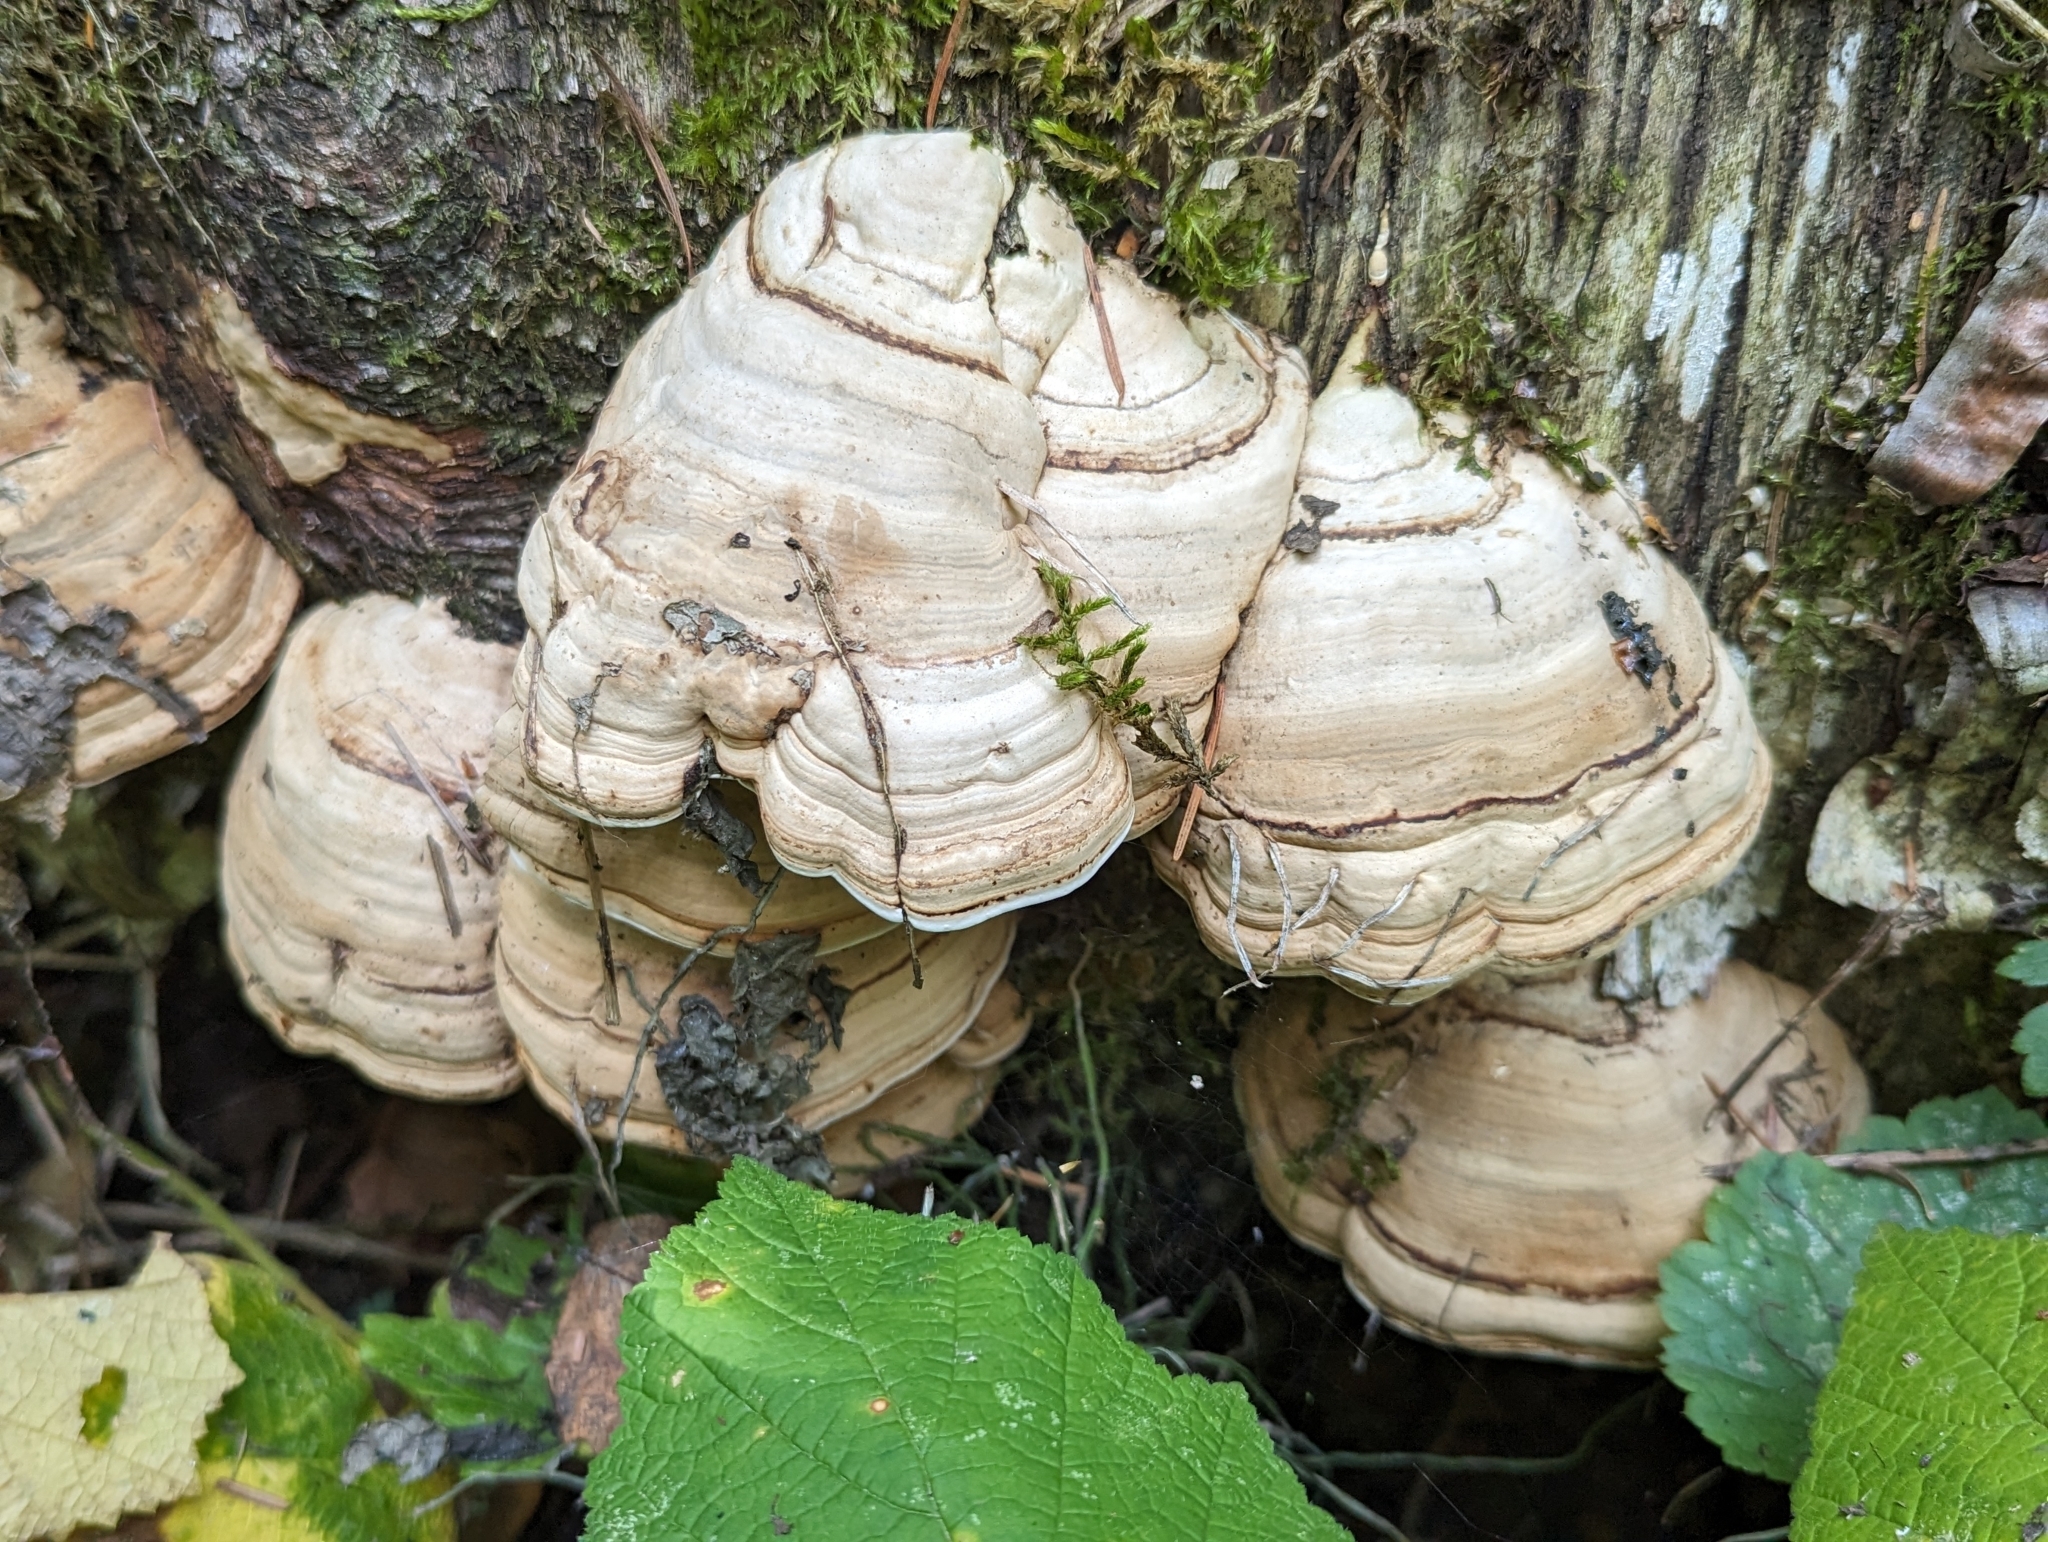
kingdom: Fungi
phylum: Basidiomycota
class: Agaricomycetes
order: Polyporales
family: Polyporaceae
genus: Fomes
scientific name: Fomes fomentarius
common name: Hoof fungus
